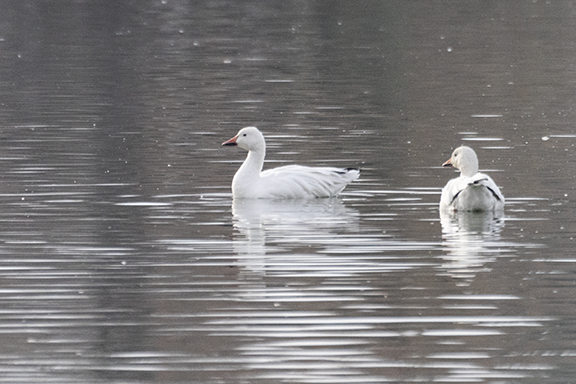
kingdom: Animalia
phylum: Chordata
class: Aves
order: Anseriformes
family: Anatidae
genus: Anser
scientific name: Anser rossii
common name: Ross's goose
